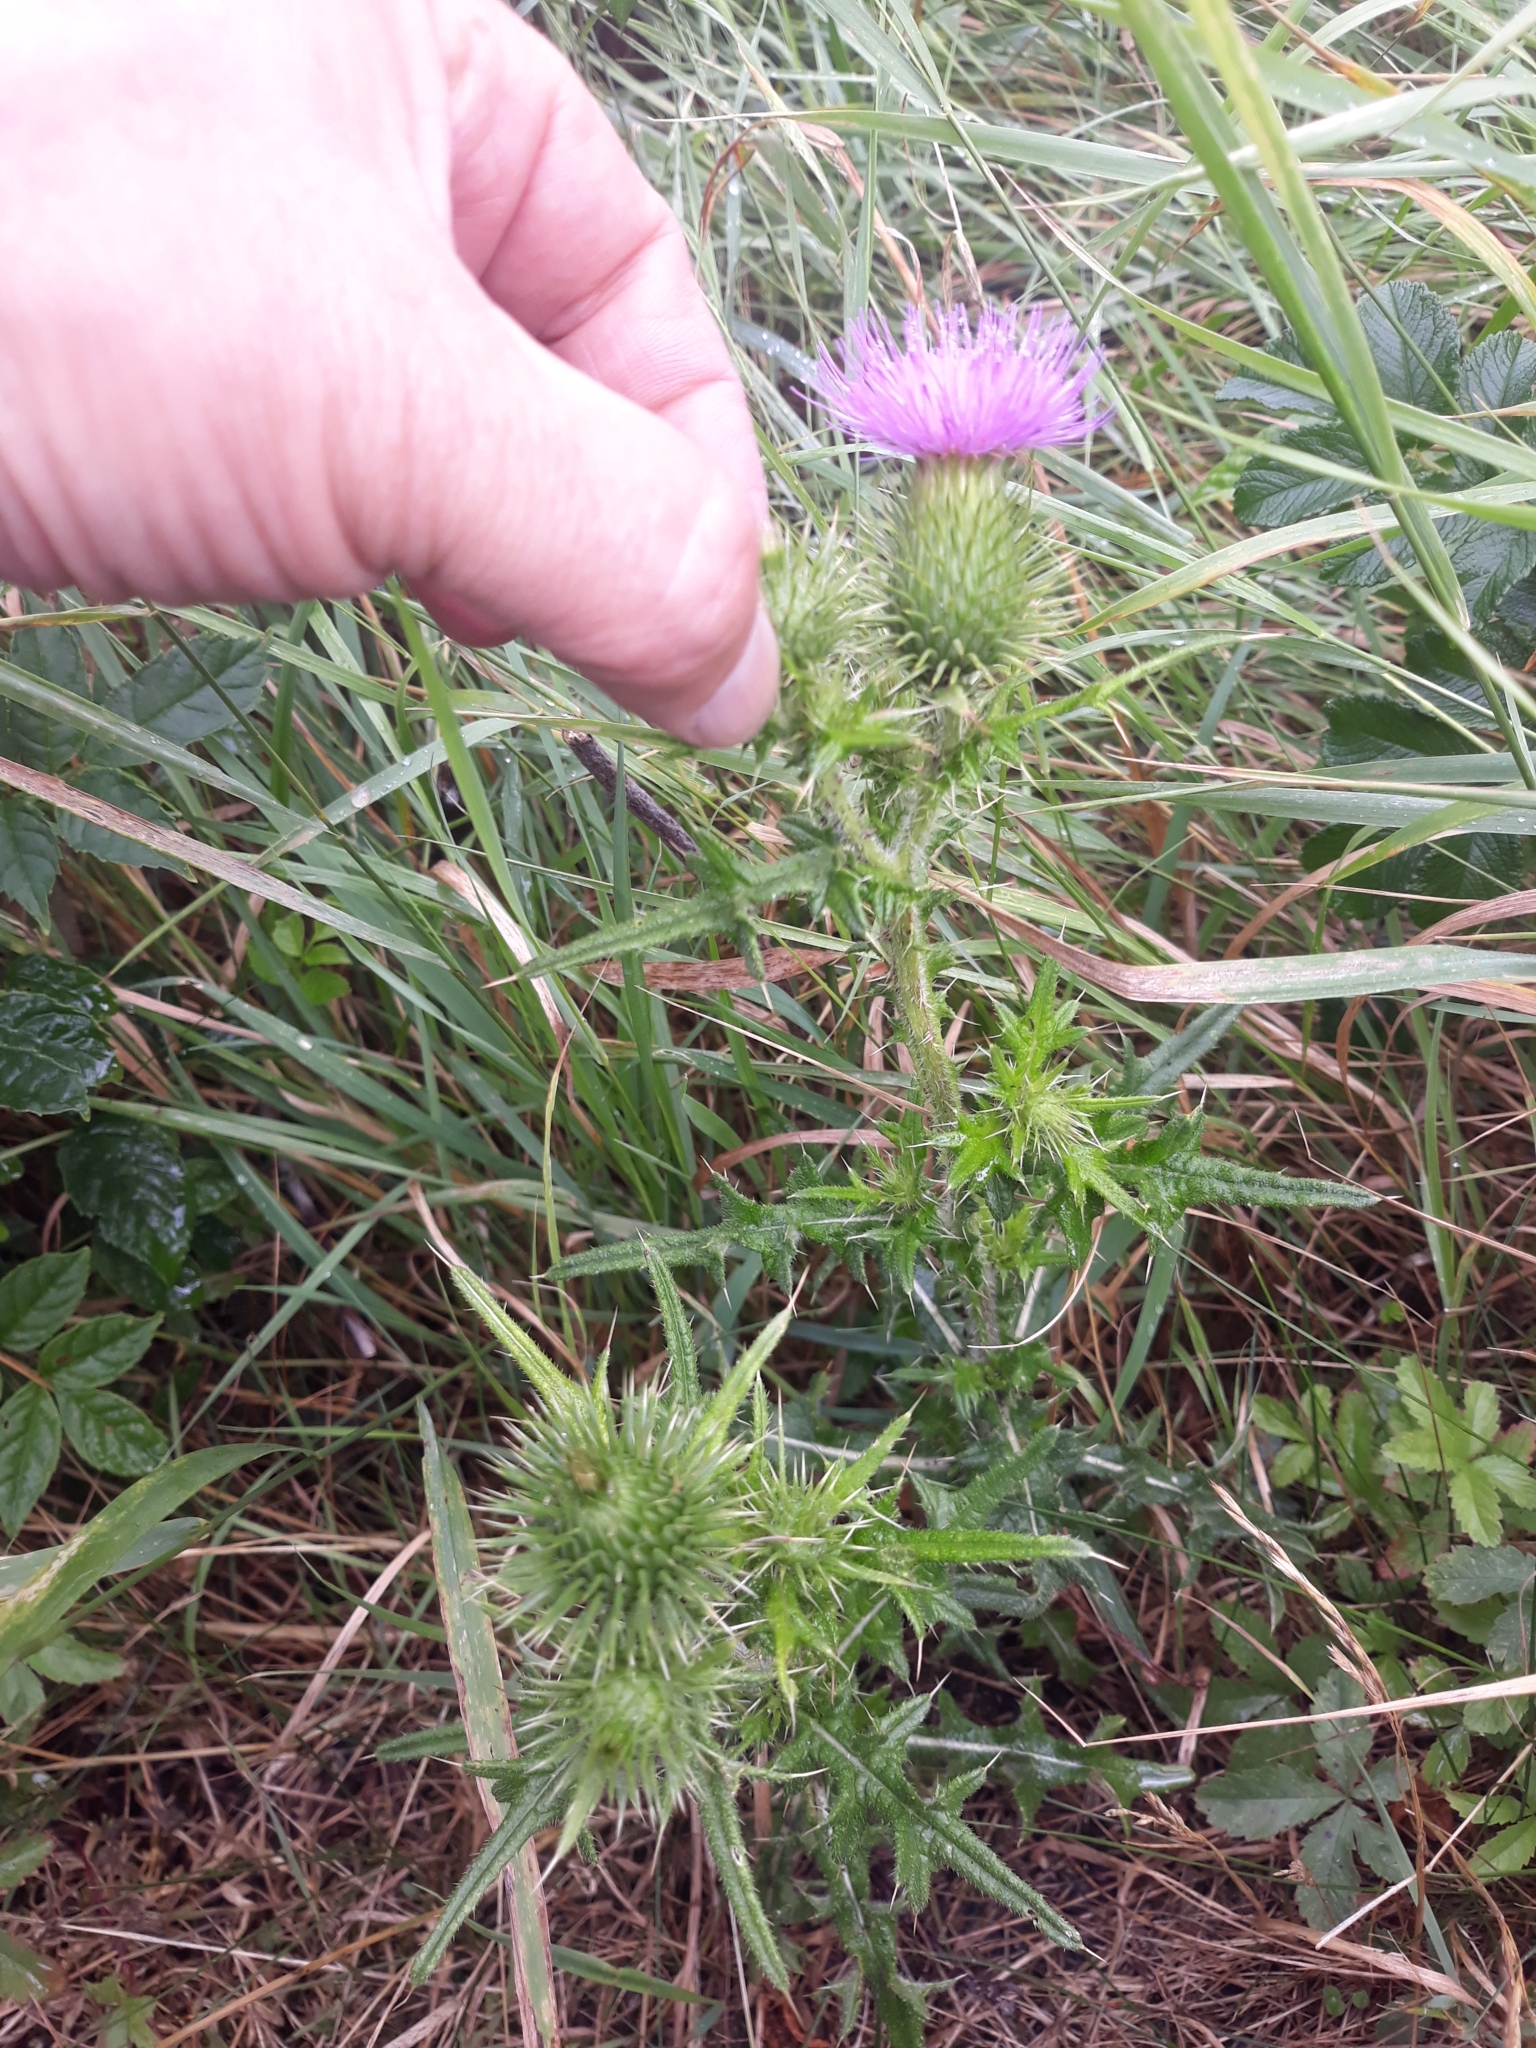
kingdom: Plantae
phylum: Tracheophyta
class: Magnoliopsida
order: Asterales
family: Asteraceae
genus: Cirsium
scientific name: Cirsium vulgare
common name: Bull thistle
